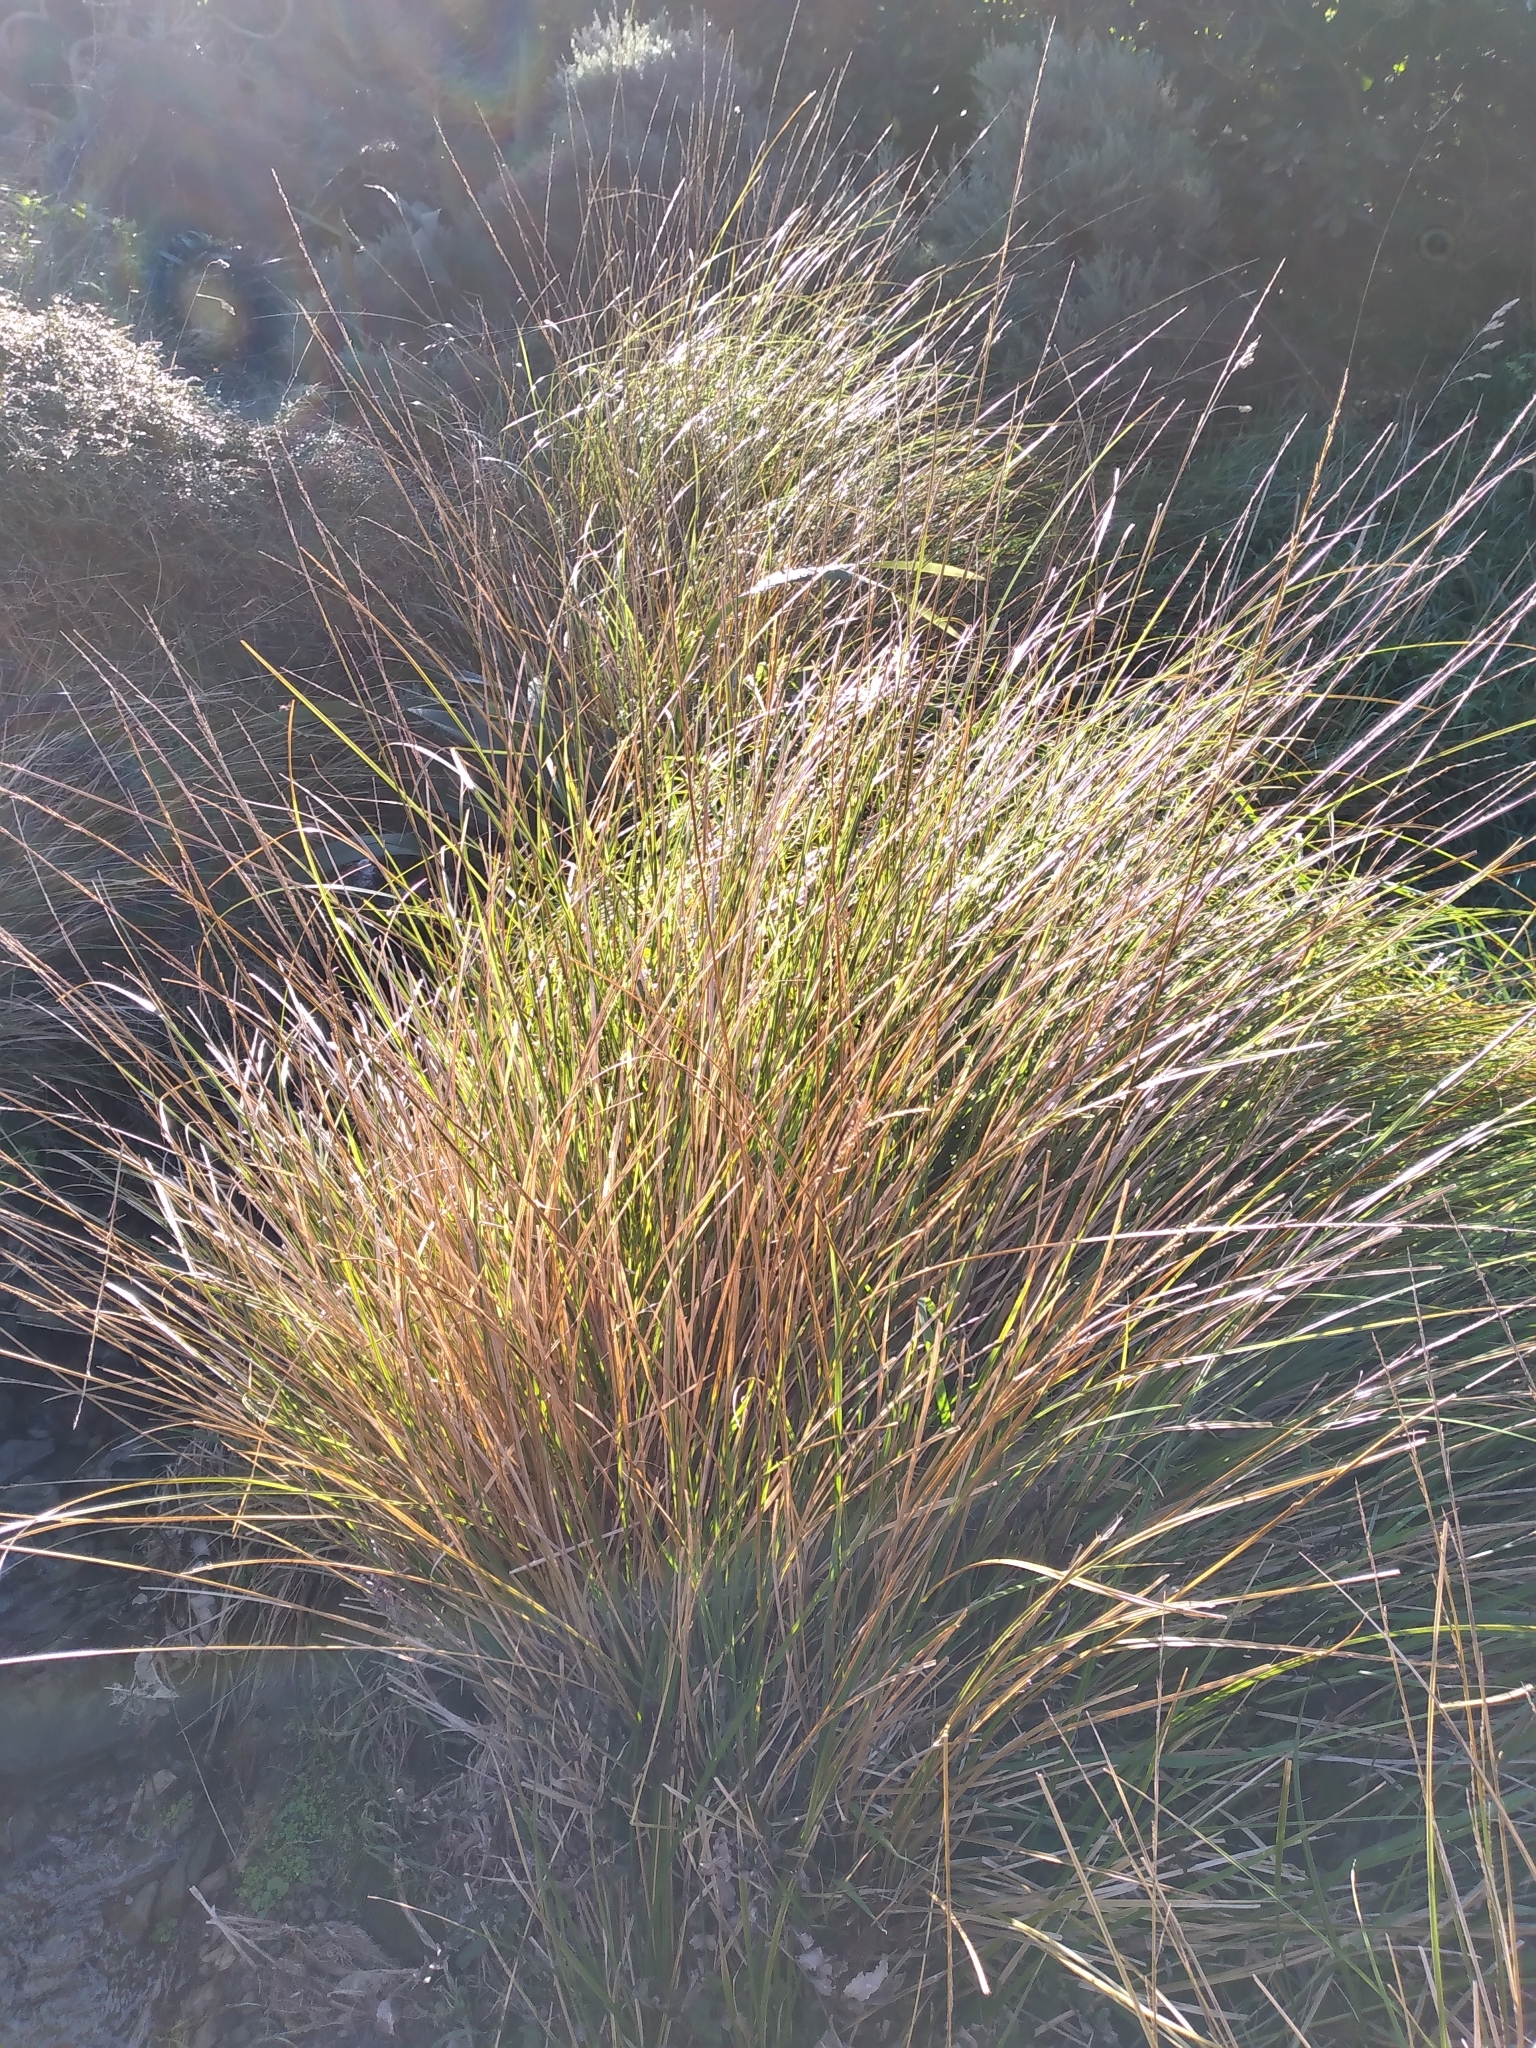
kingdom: Plantae
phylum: Tracheophyta
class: Liliopsida
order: Poales
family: Cyperaceae
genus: Carex
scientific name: Carex virgata
